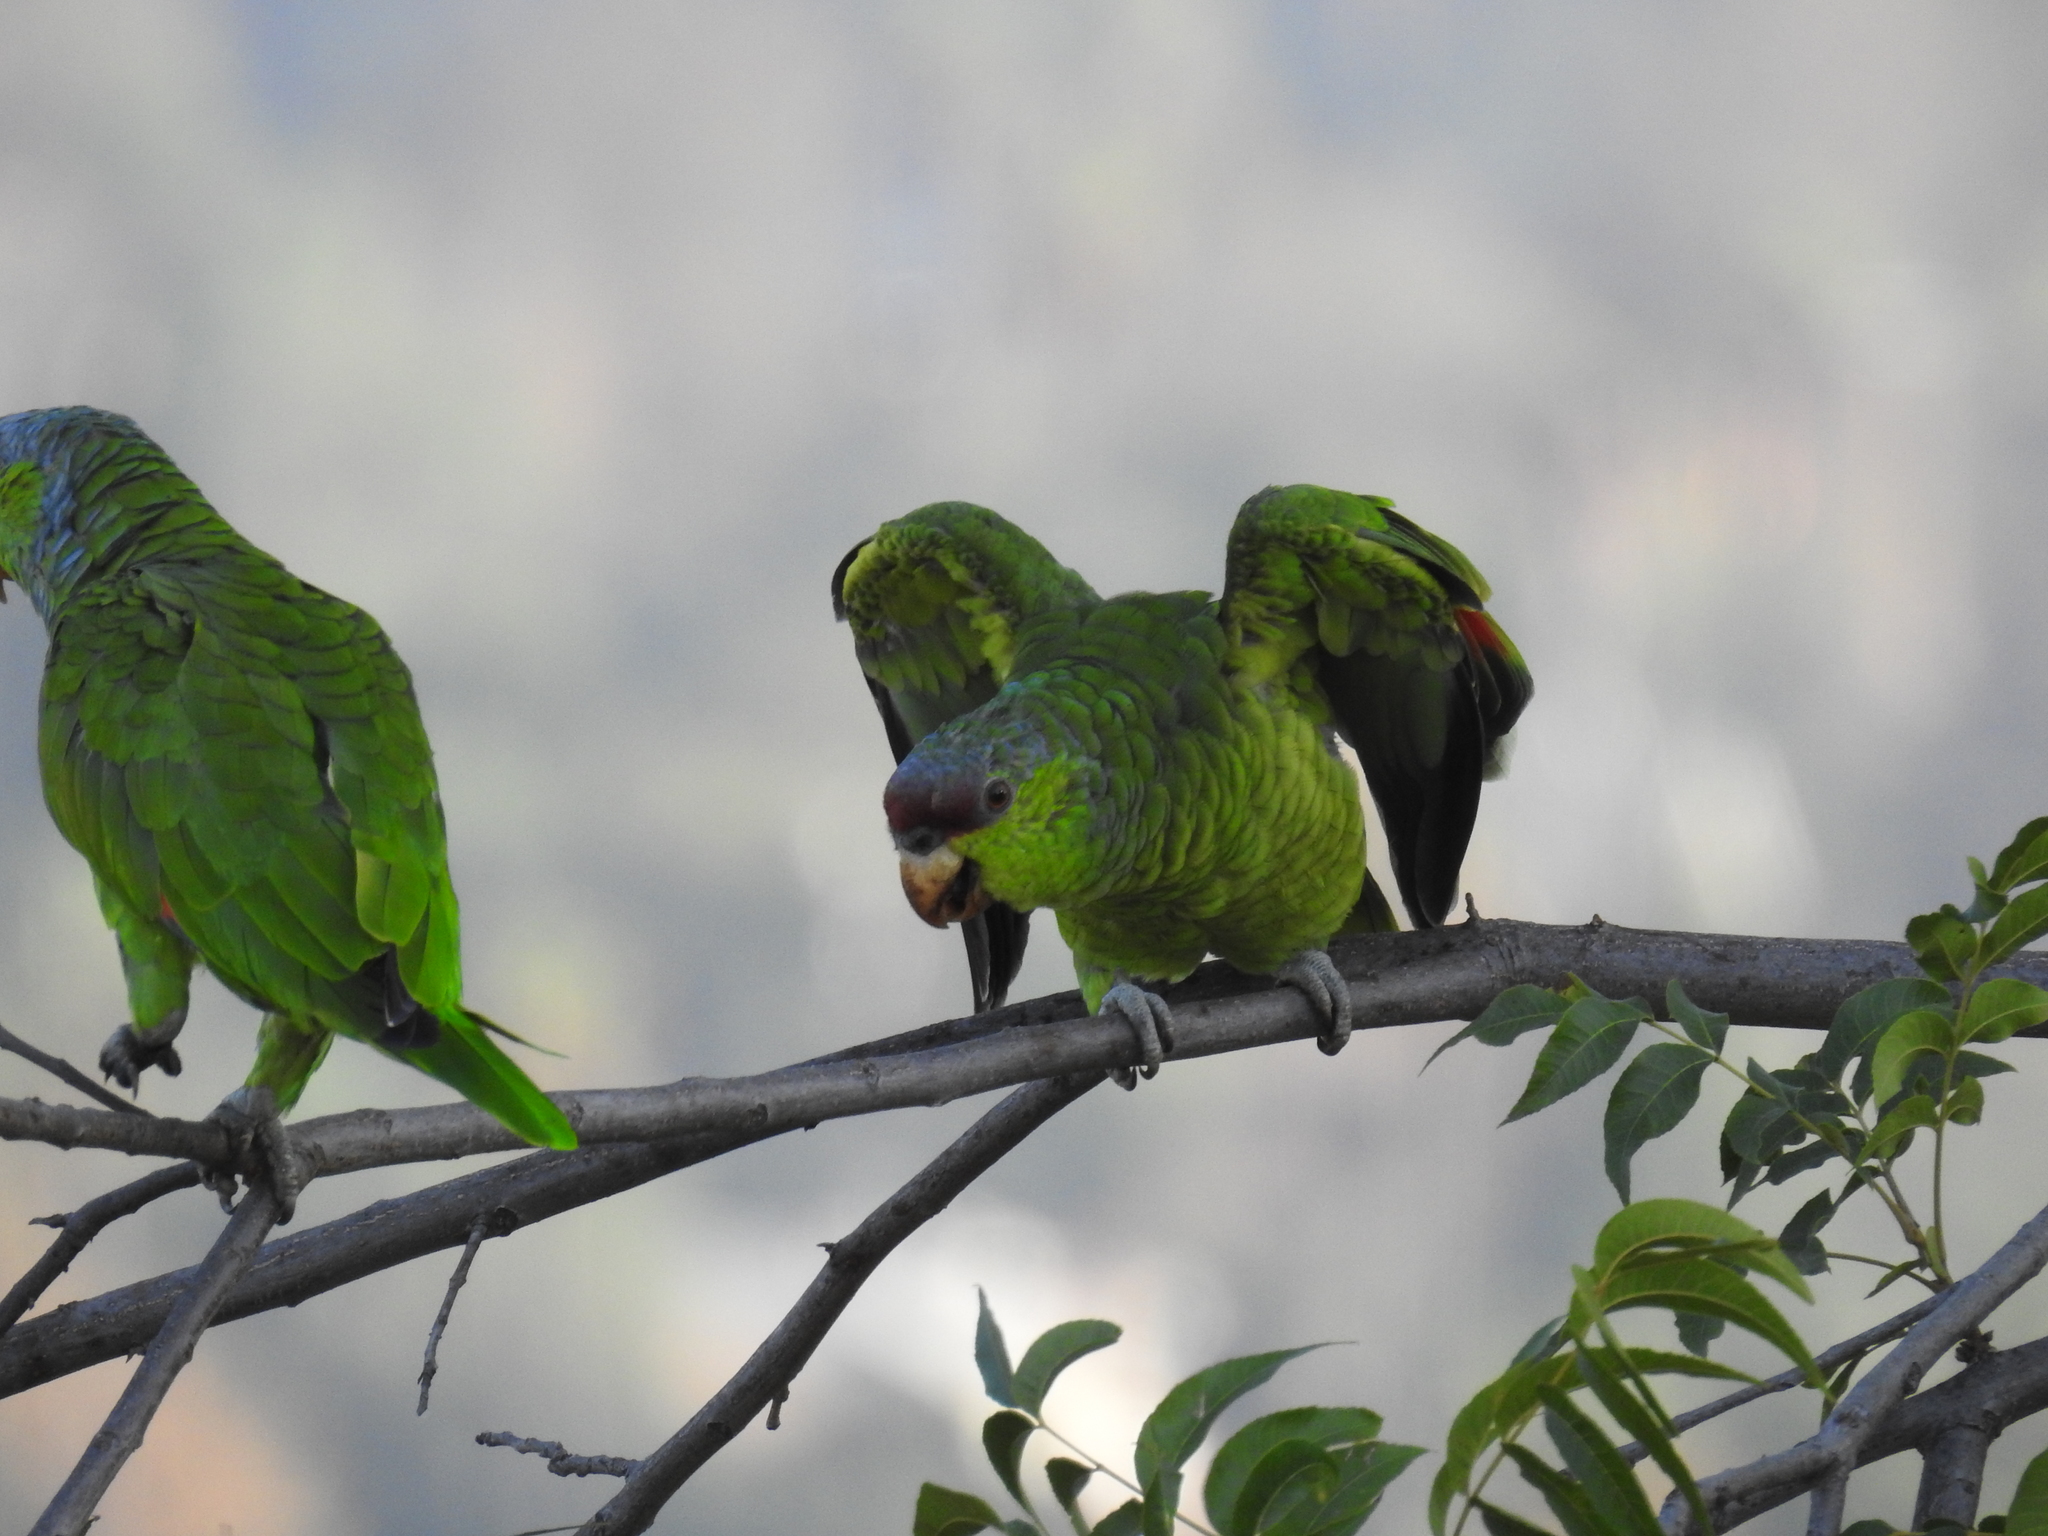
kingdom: Animalia
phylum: Chordata
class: Aves
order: Psittaciformes
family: Psittacidae
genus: Amazona
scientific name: Amazona finschi
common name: Lilac-crowned amazon
